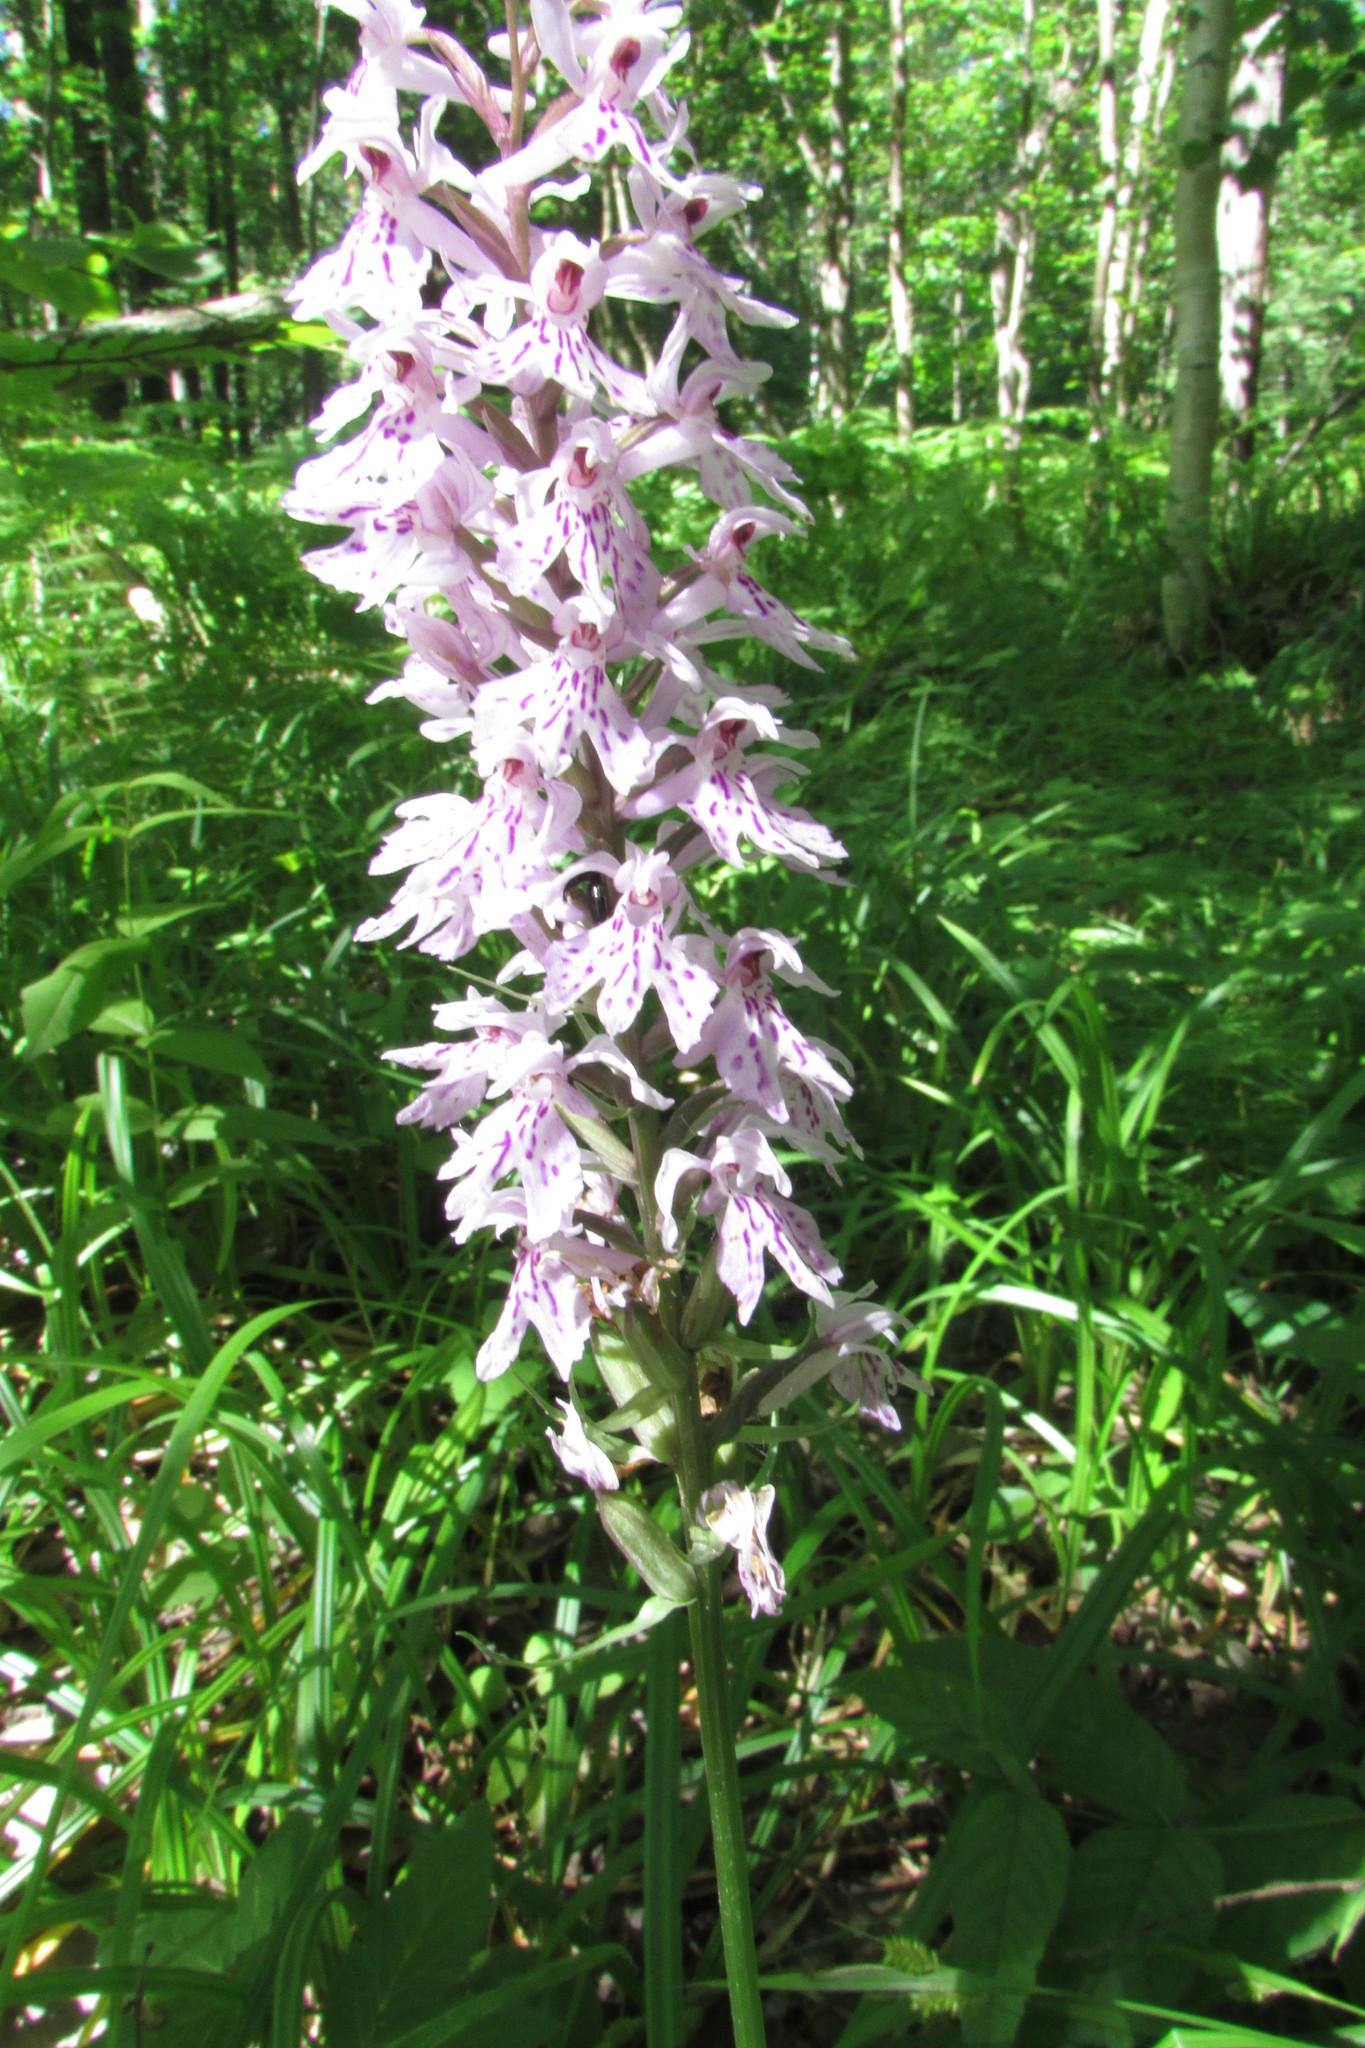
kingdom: Plantae
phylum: Tracheophyta
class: Liliopsida
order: Asparagales
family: Orchidaceae
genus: Dactylorhiza
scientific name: Dactylorhiza maculata
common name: Heath spotted-orchid
